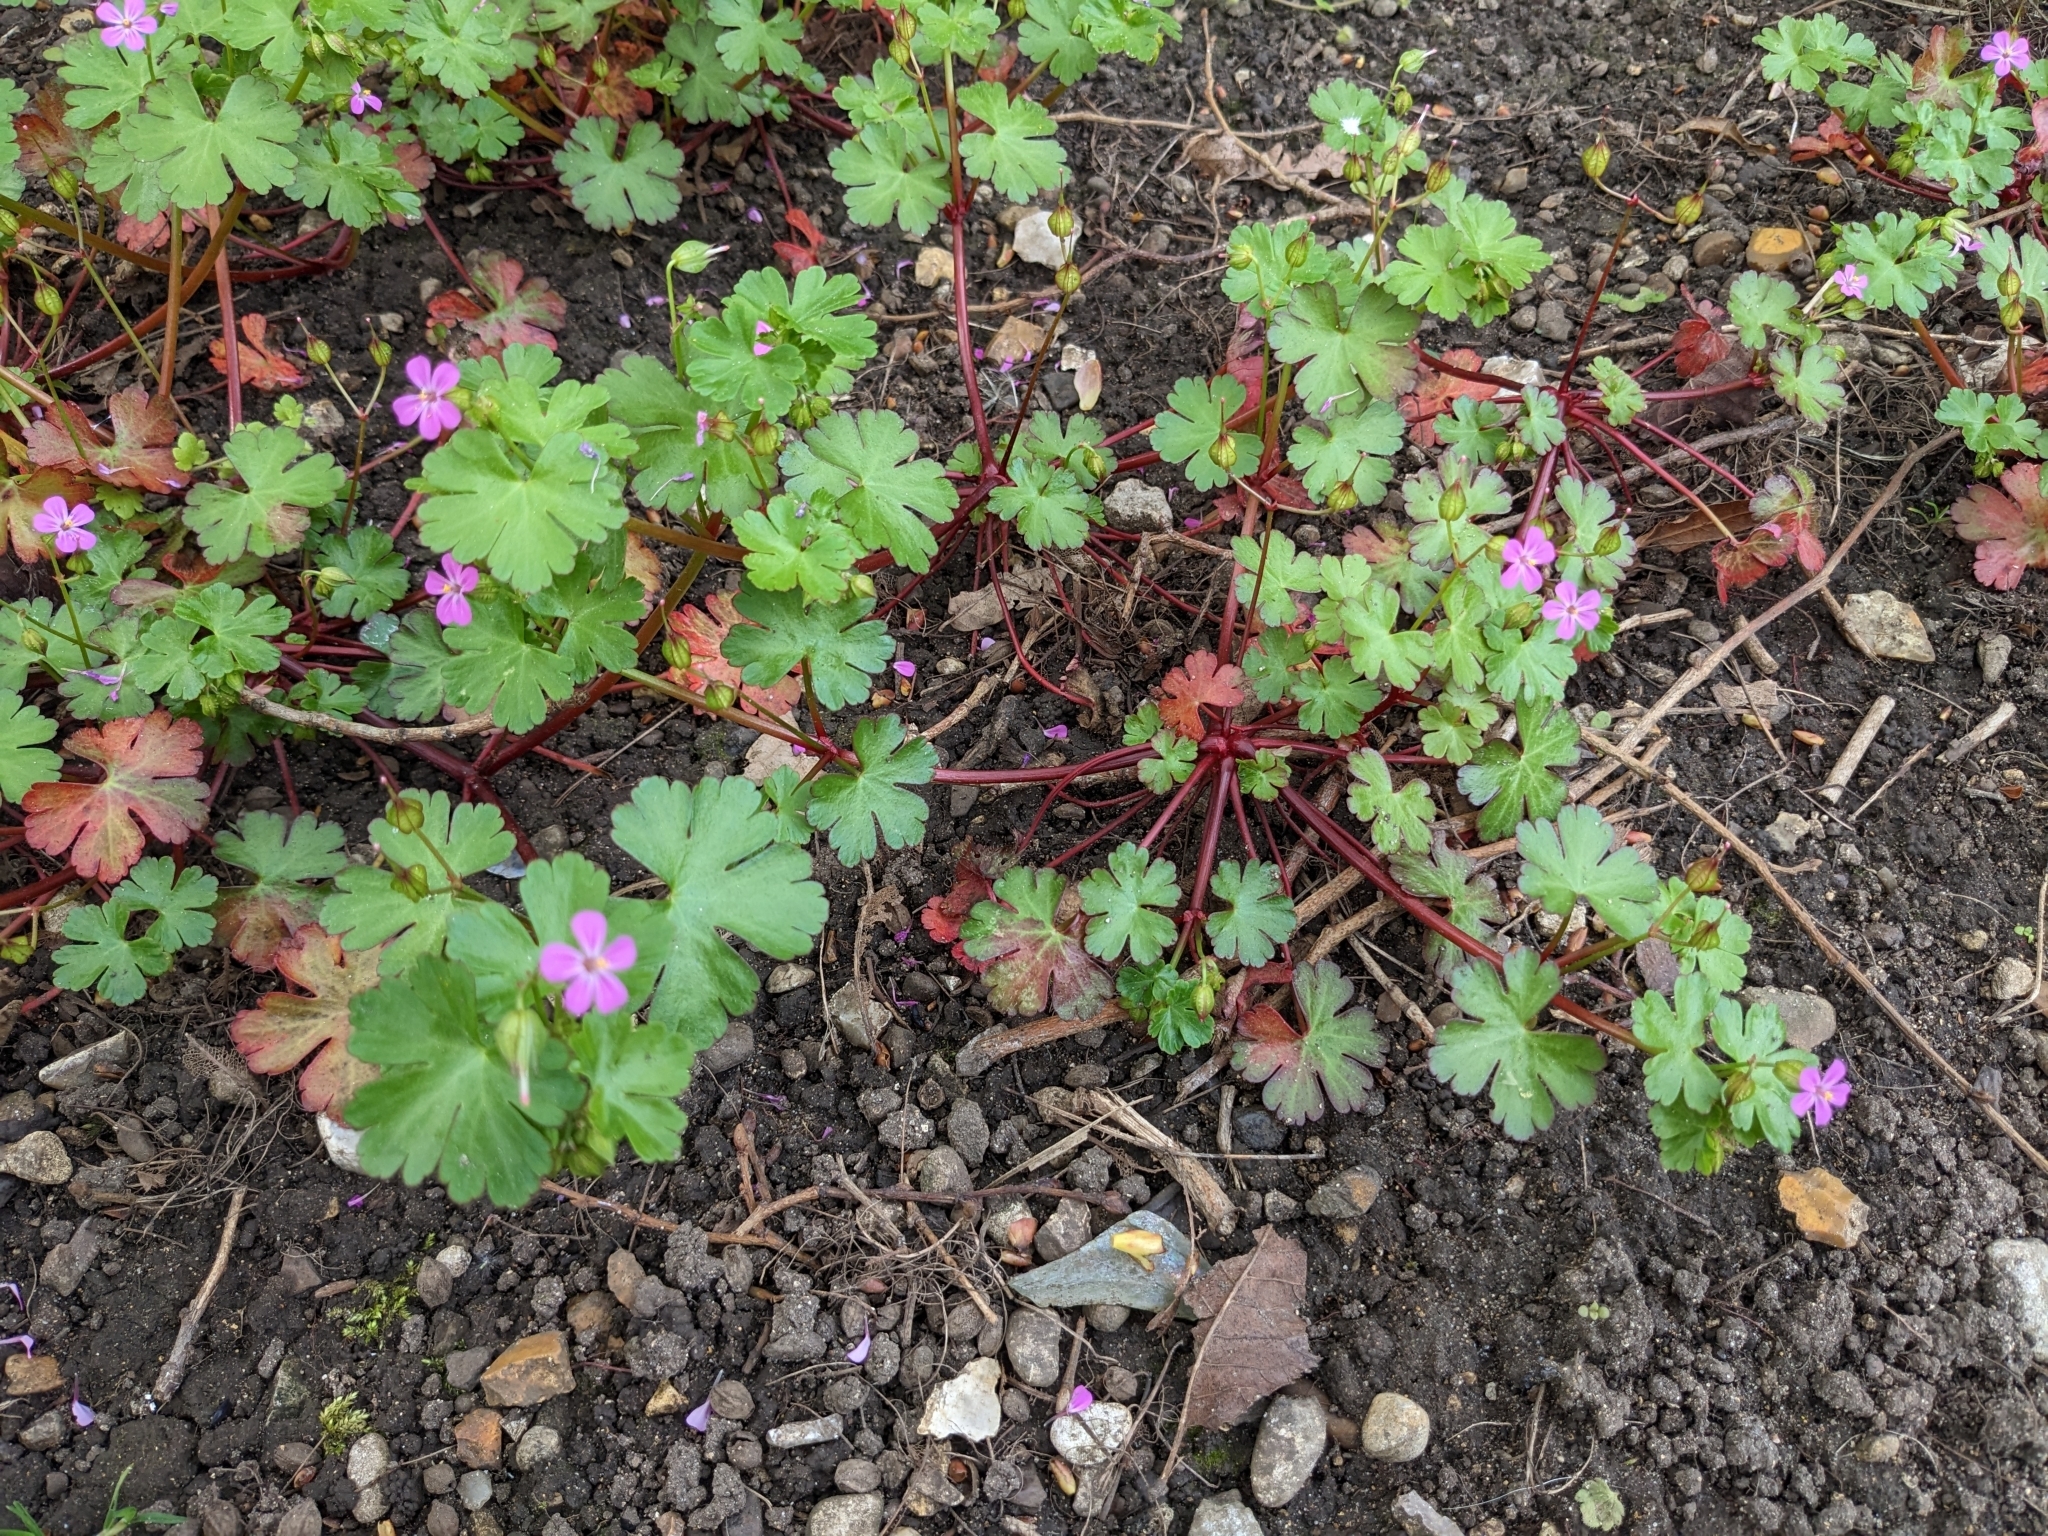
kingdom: Plantae
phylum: Tracheophyta
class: Magnoliopsida
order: Geraniales
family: Geraniaceae
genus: Geranium
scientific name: Geranium lucidum
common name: Shining crane's-bill
